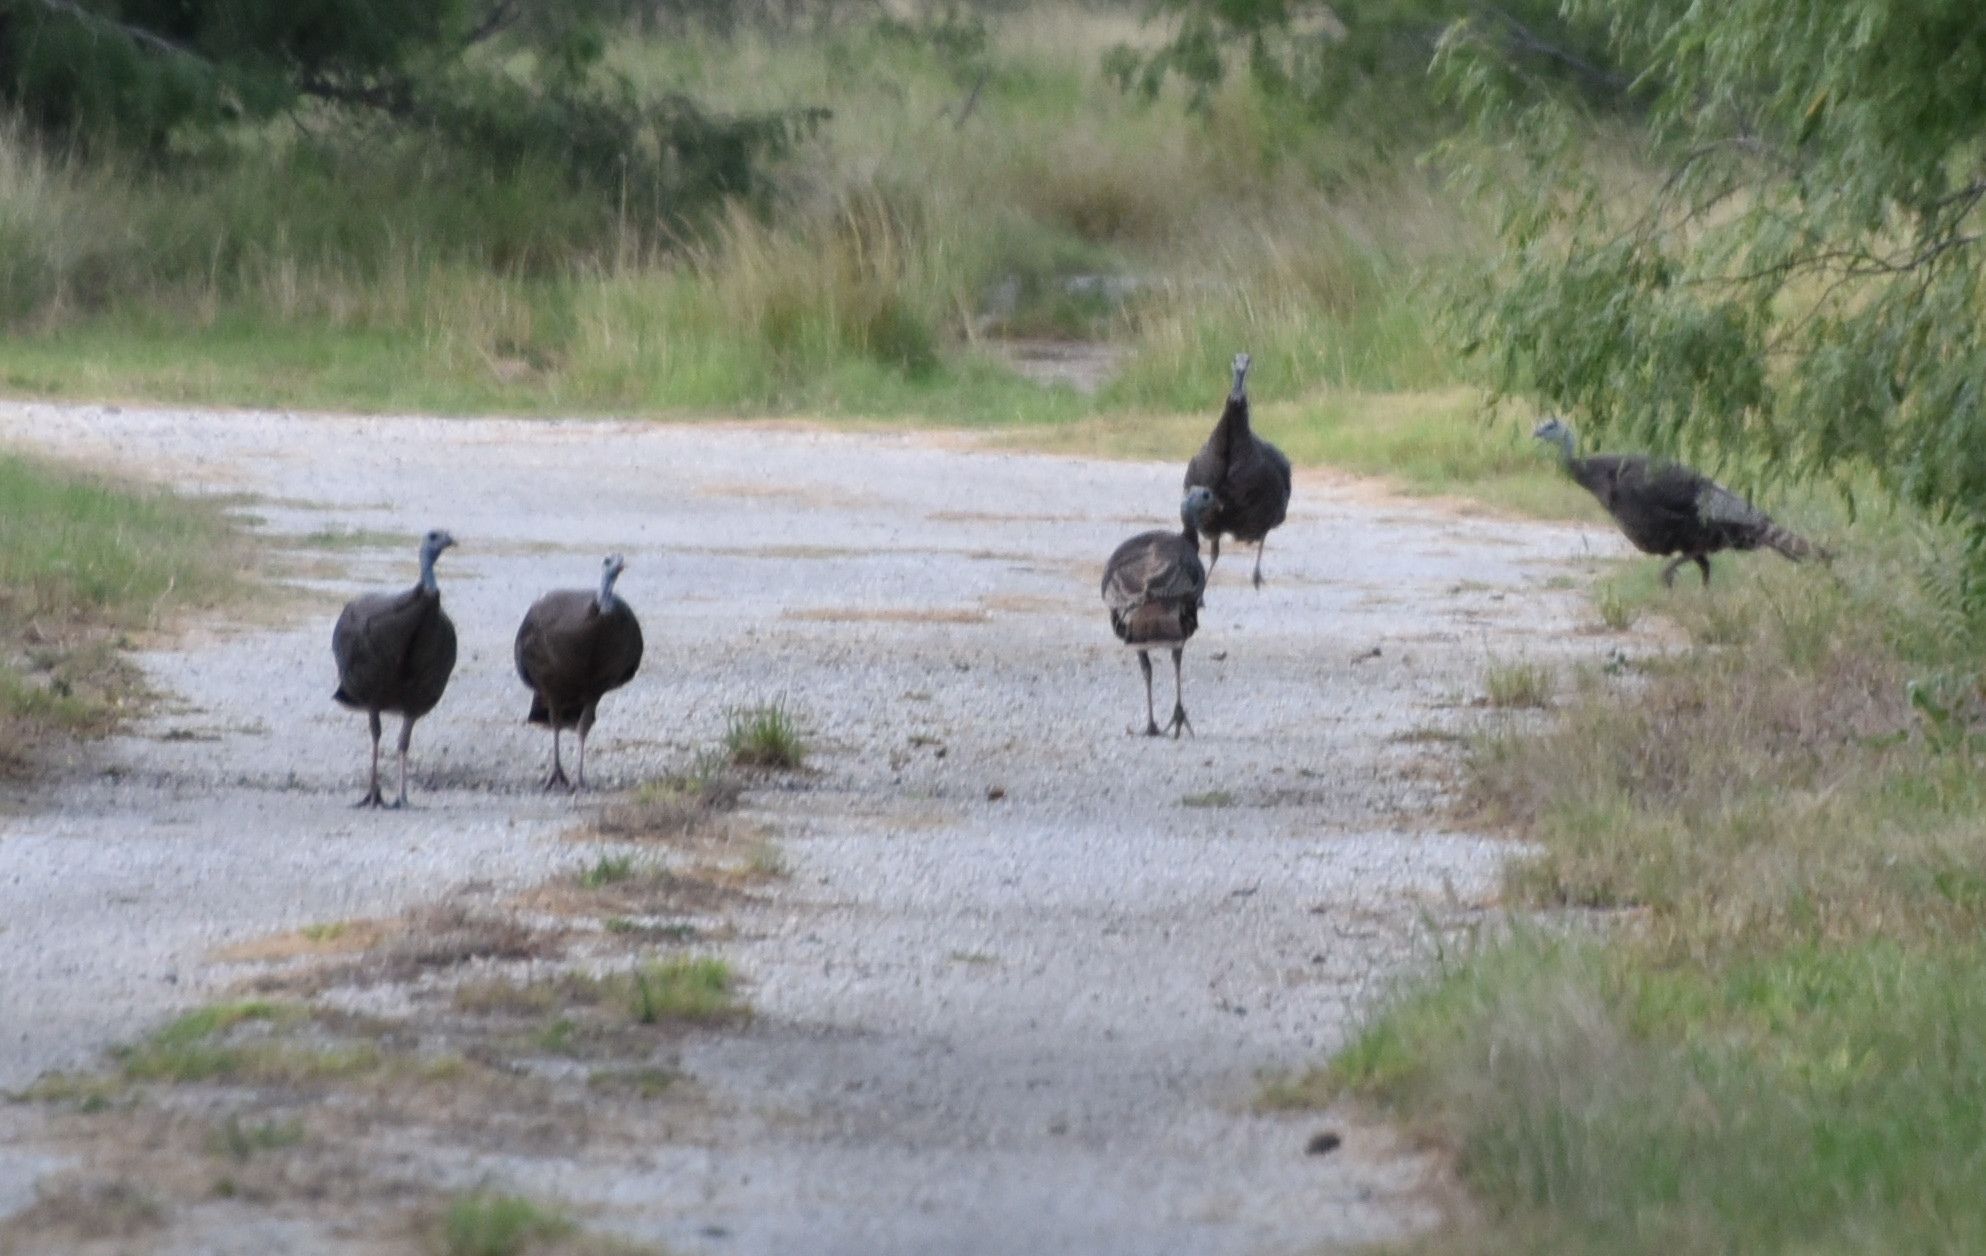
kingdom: Animalia
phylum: Chordata
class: Aves
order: Galliformes
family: Phasianidae
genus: Meleagris
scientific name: Meleagris gallopavo
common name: Wild turkey
